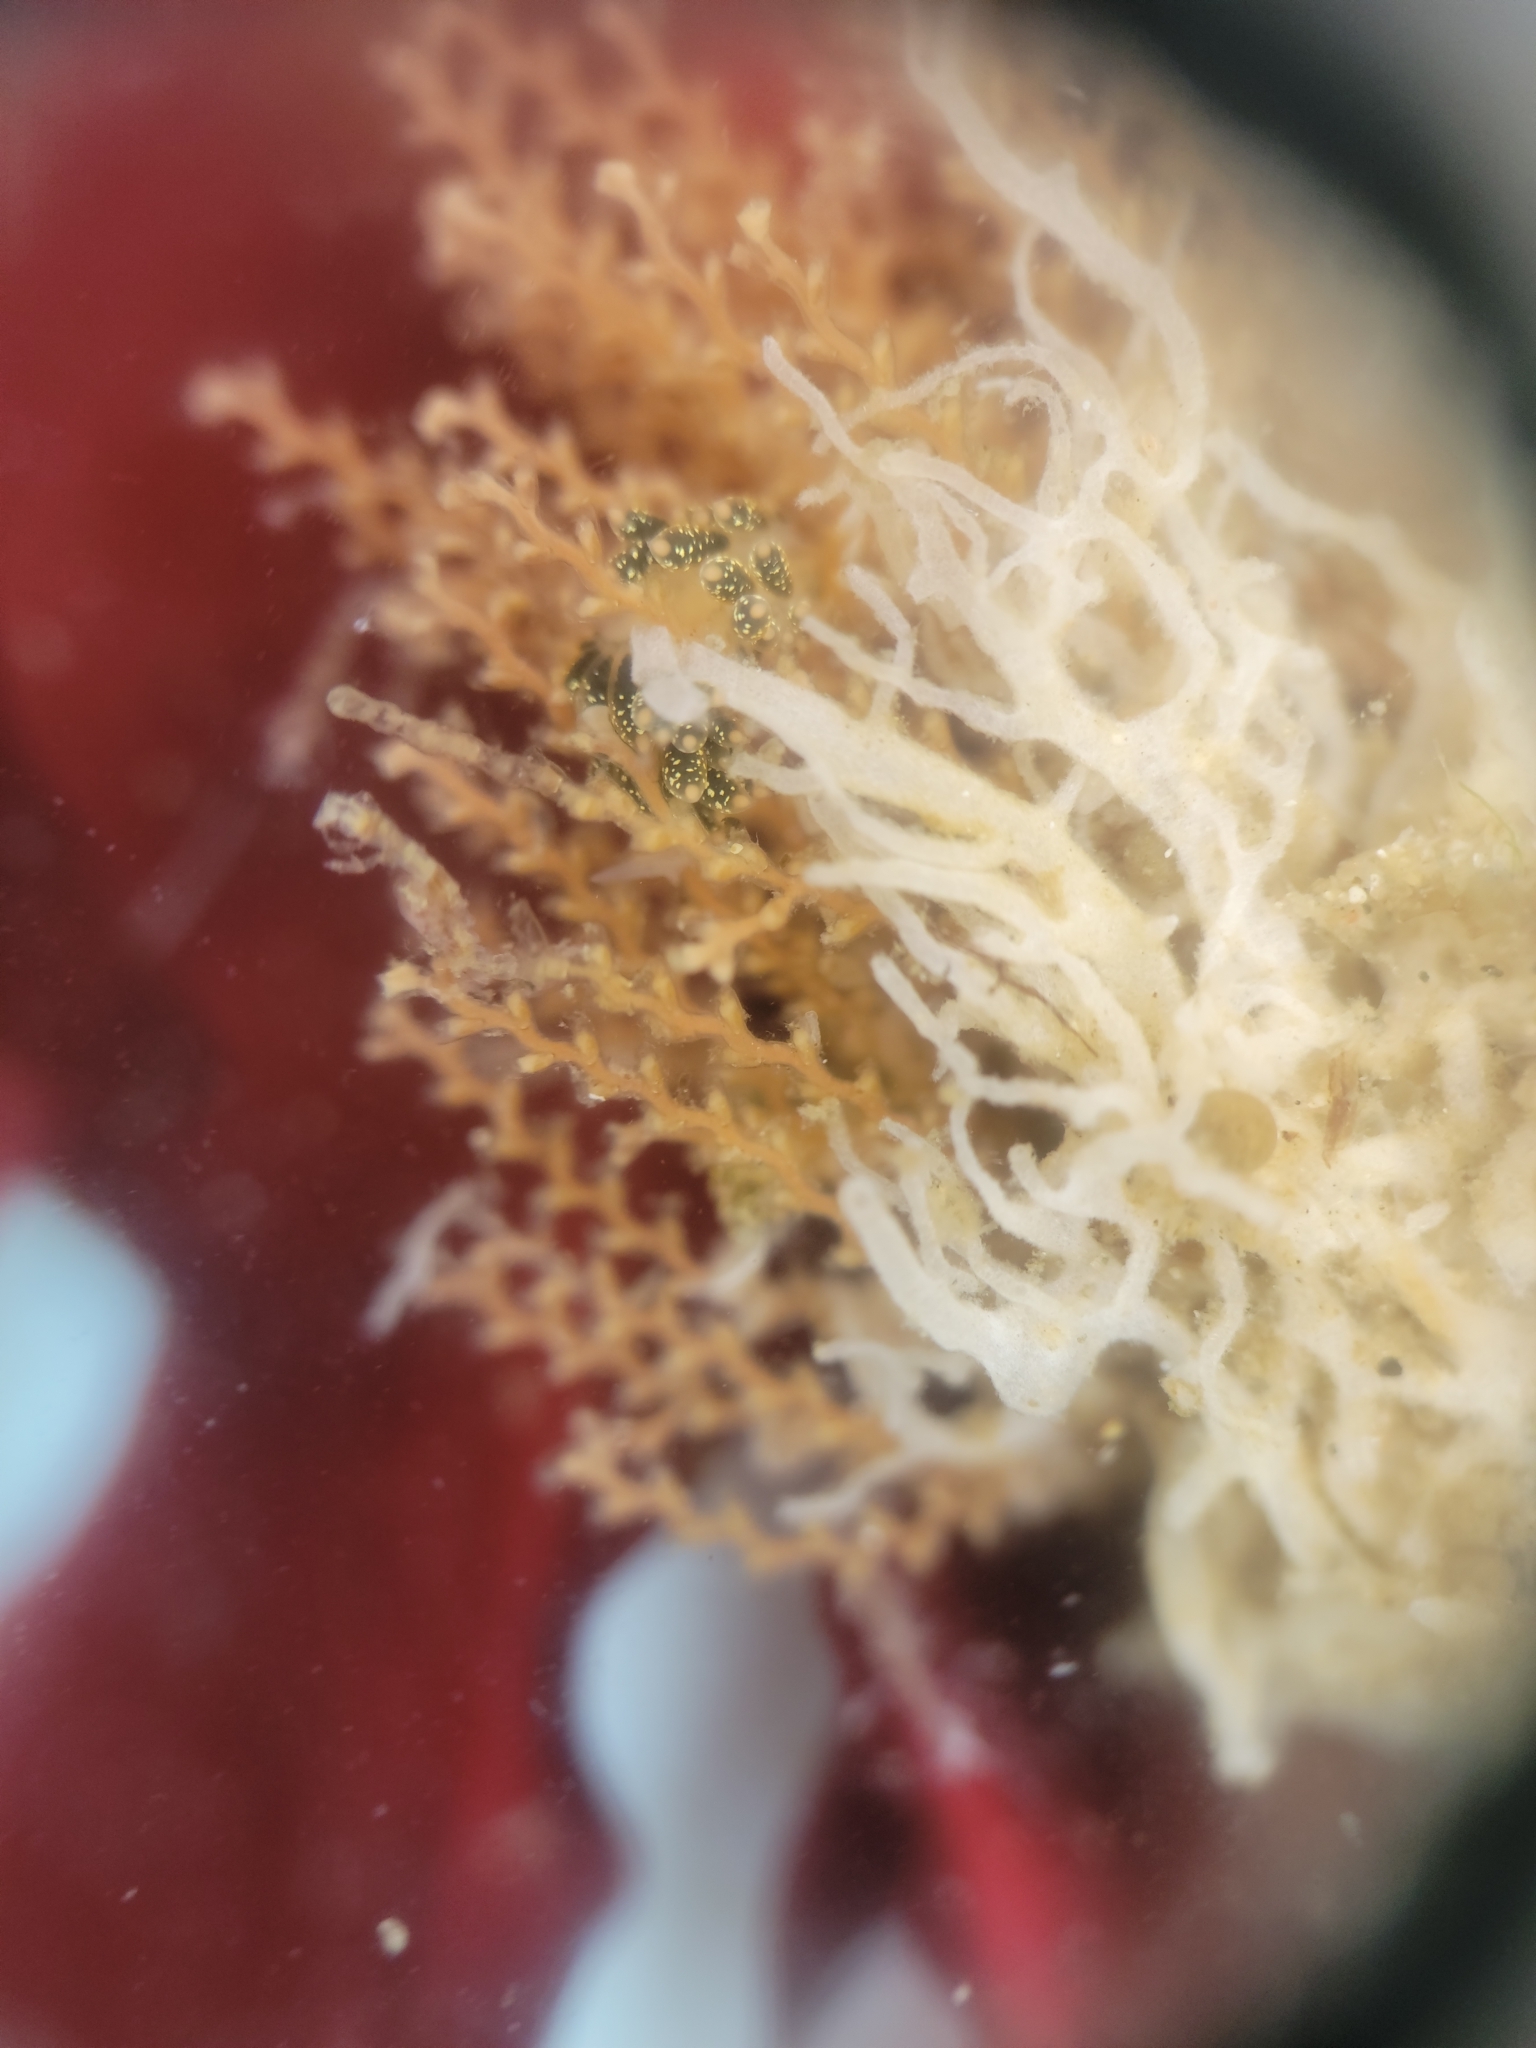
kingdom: Animalia
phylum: Mollusca
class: Gastropoda
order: Nudibranchia
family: Trinchesiidae
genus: Diaphoreolis
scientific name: Diaphoreolis flavovulta
